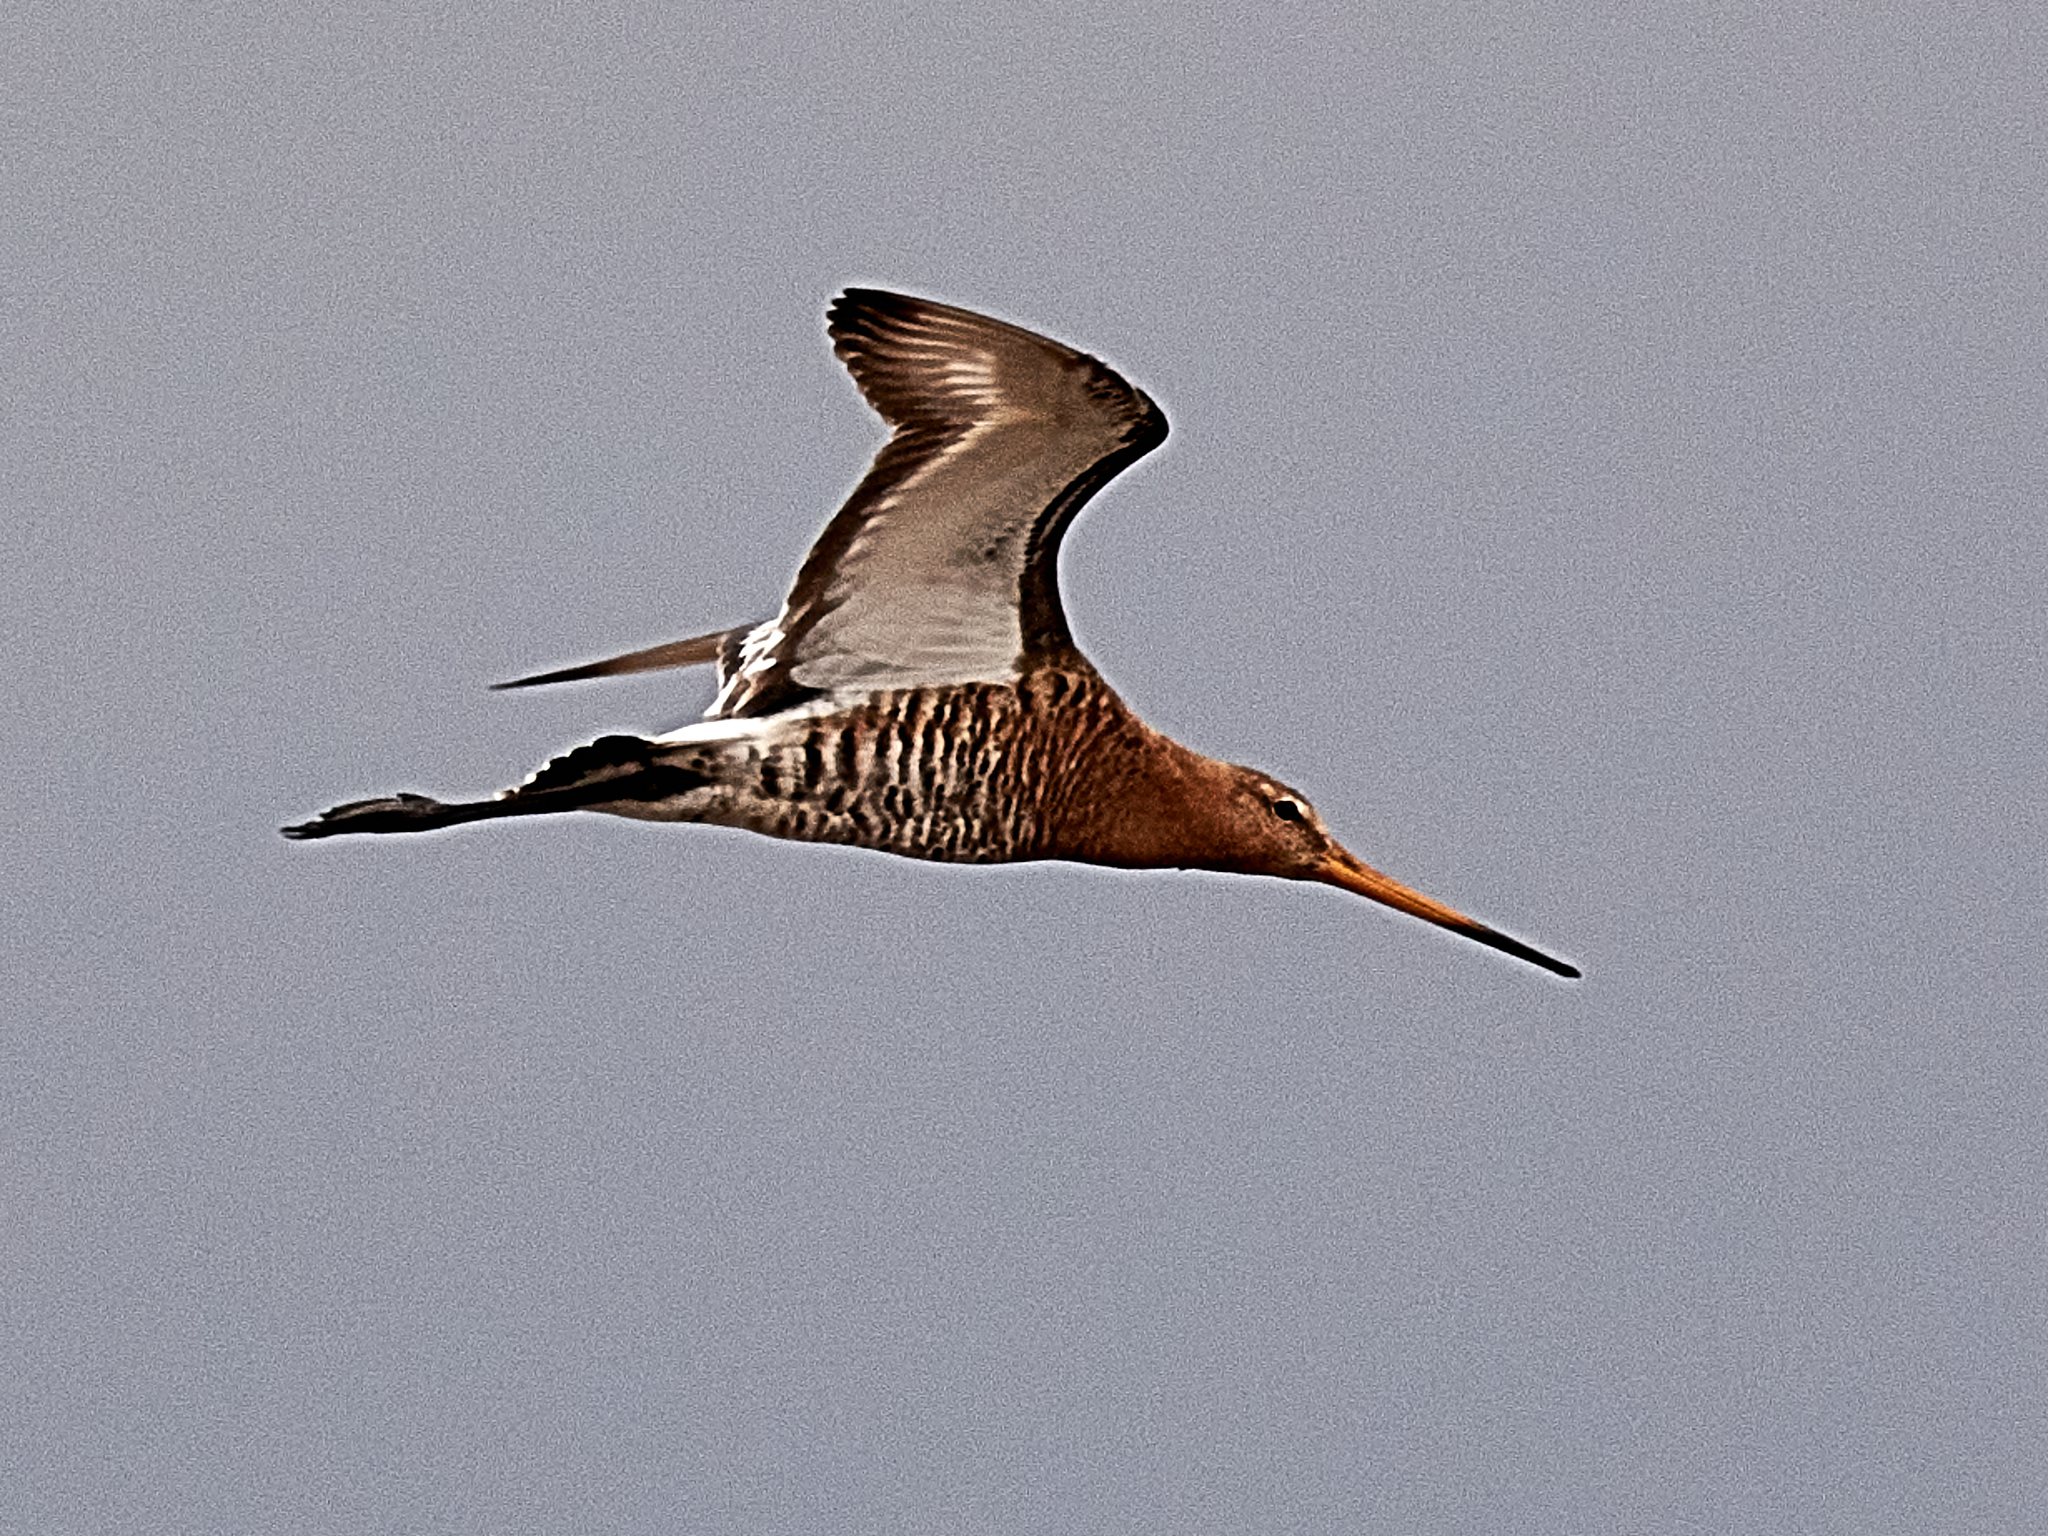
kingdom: Animalia
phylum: Chordata
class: Aves
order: Charadriiformes
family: Scolopacidae
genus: Limosa
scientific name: Limosa limosa
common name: Black-tailed godwit
